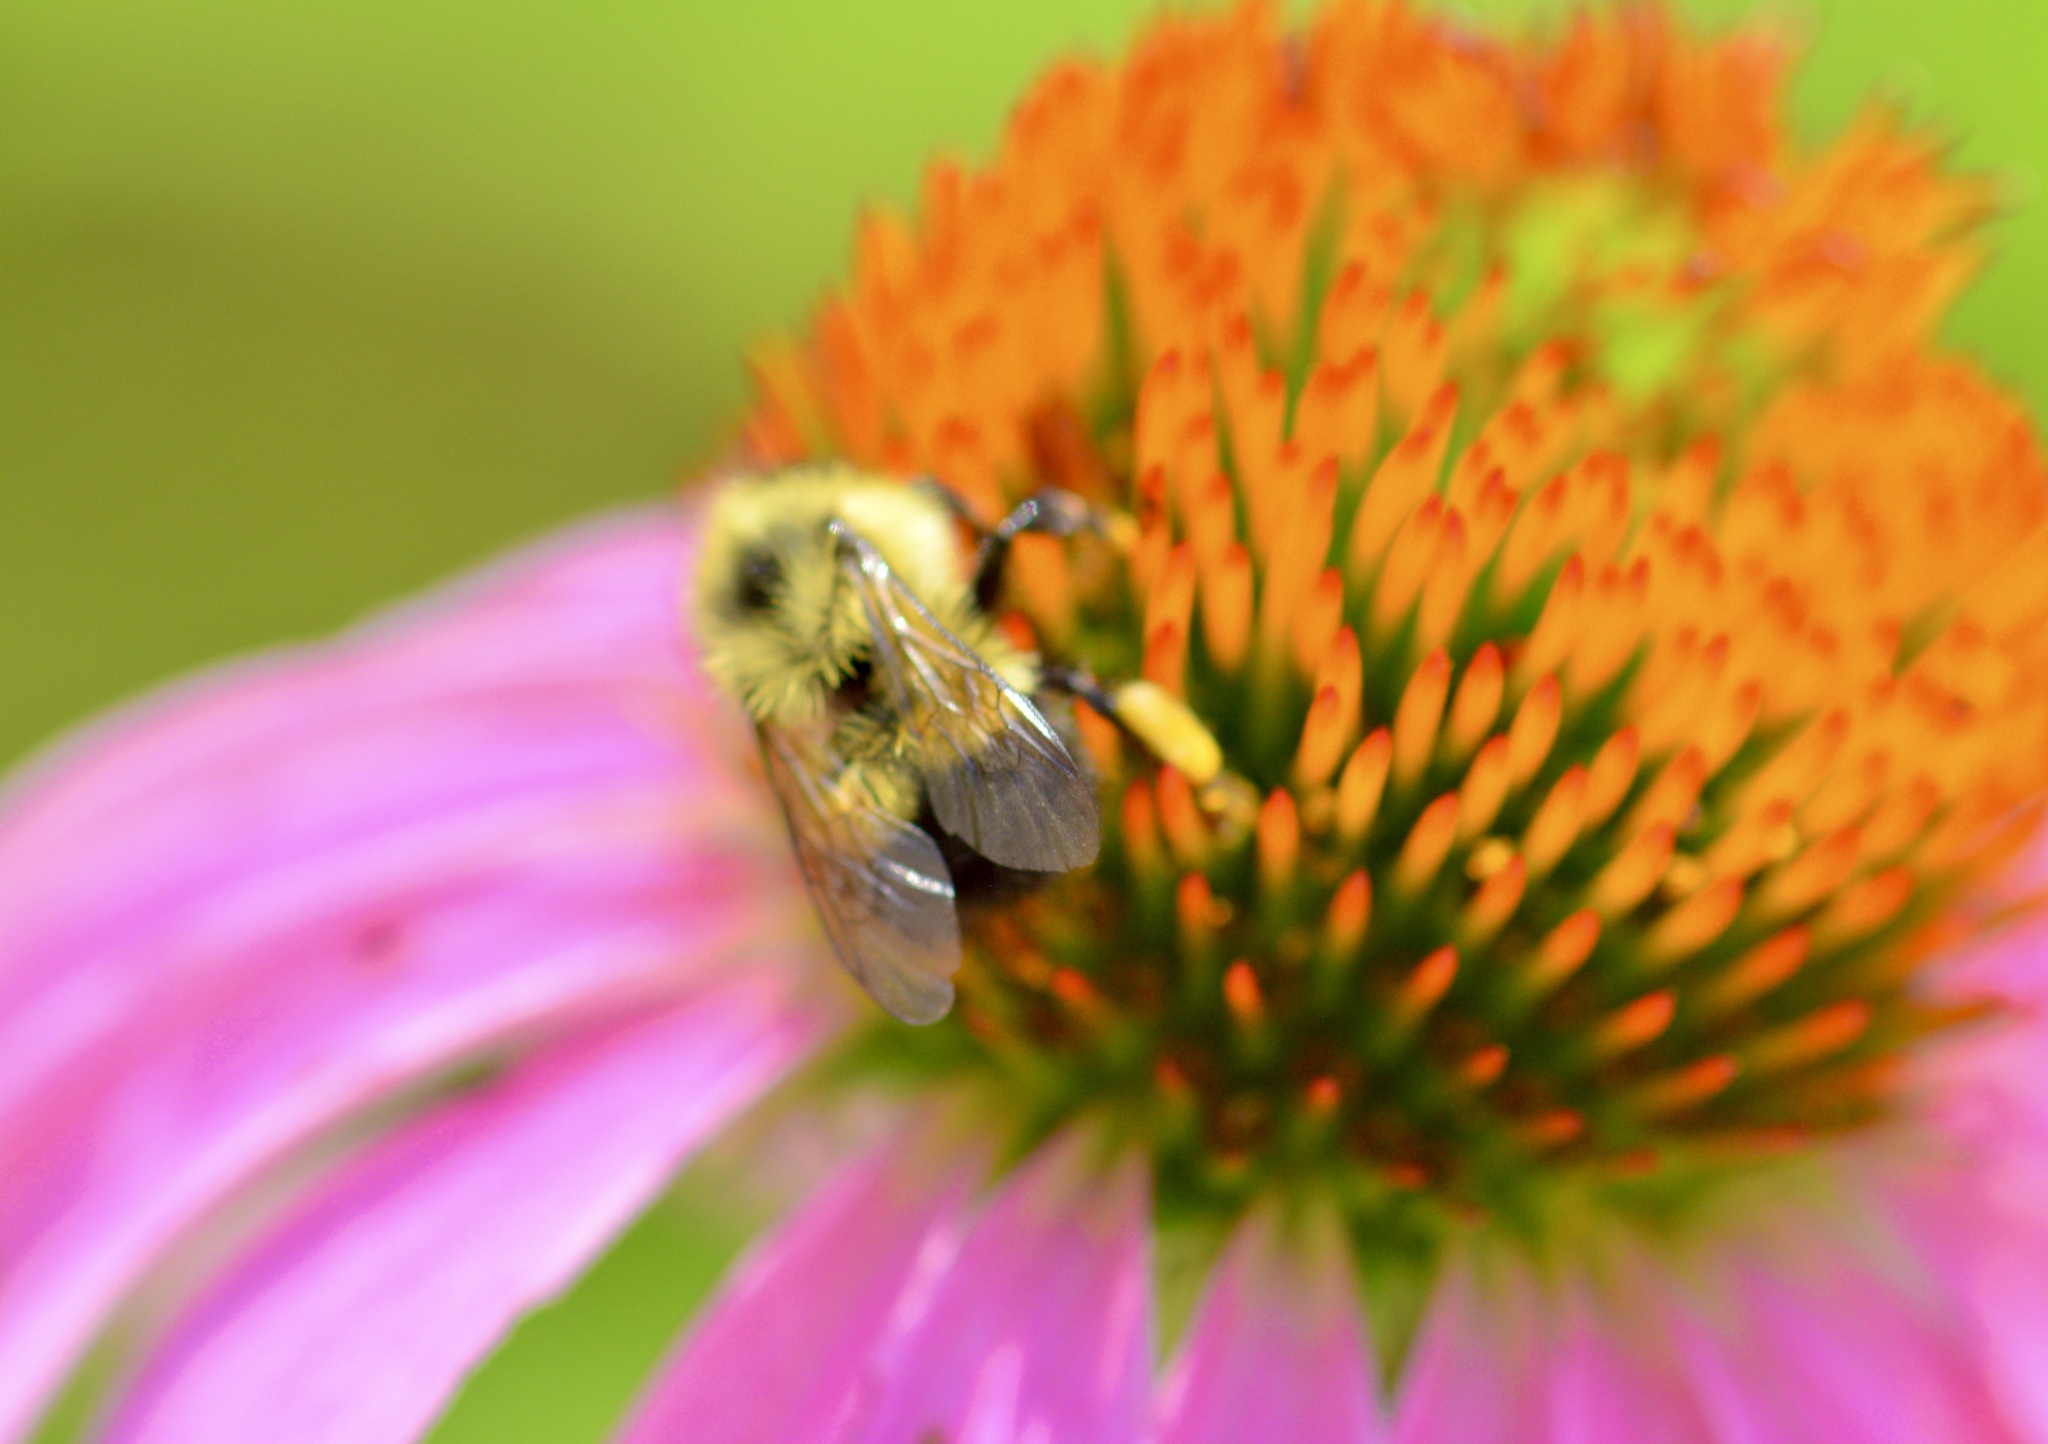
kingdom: Animalia
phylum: Arthropoda
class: Insecta
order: Hymenoptera
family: Apidae
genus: Pyrobombus
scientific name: Pyrobombus
